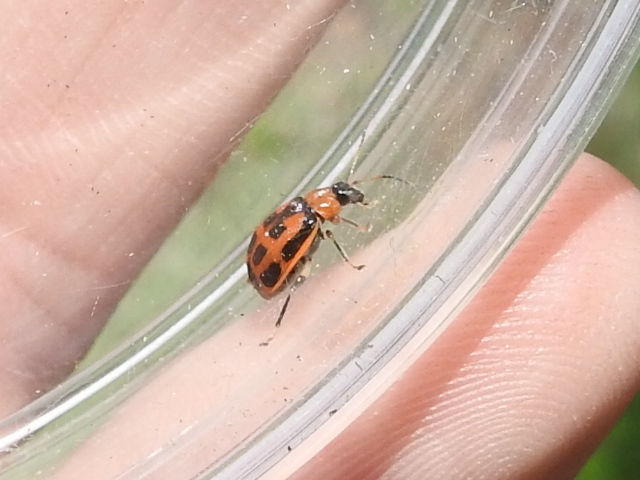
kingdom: Animalia
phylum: Arthropoda
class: Insecta
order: Coleoptera
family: Chrysomelidae
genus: Cerotoma
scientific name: Cerotoma trifurcata
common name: Bean leaf beetle
